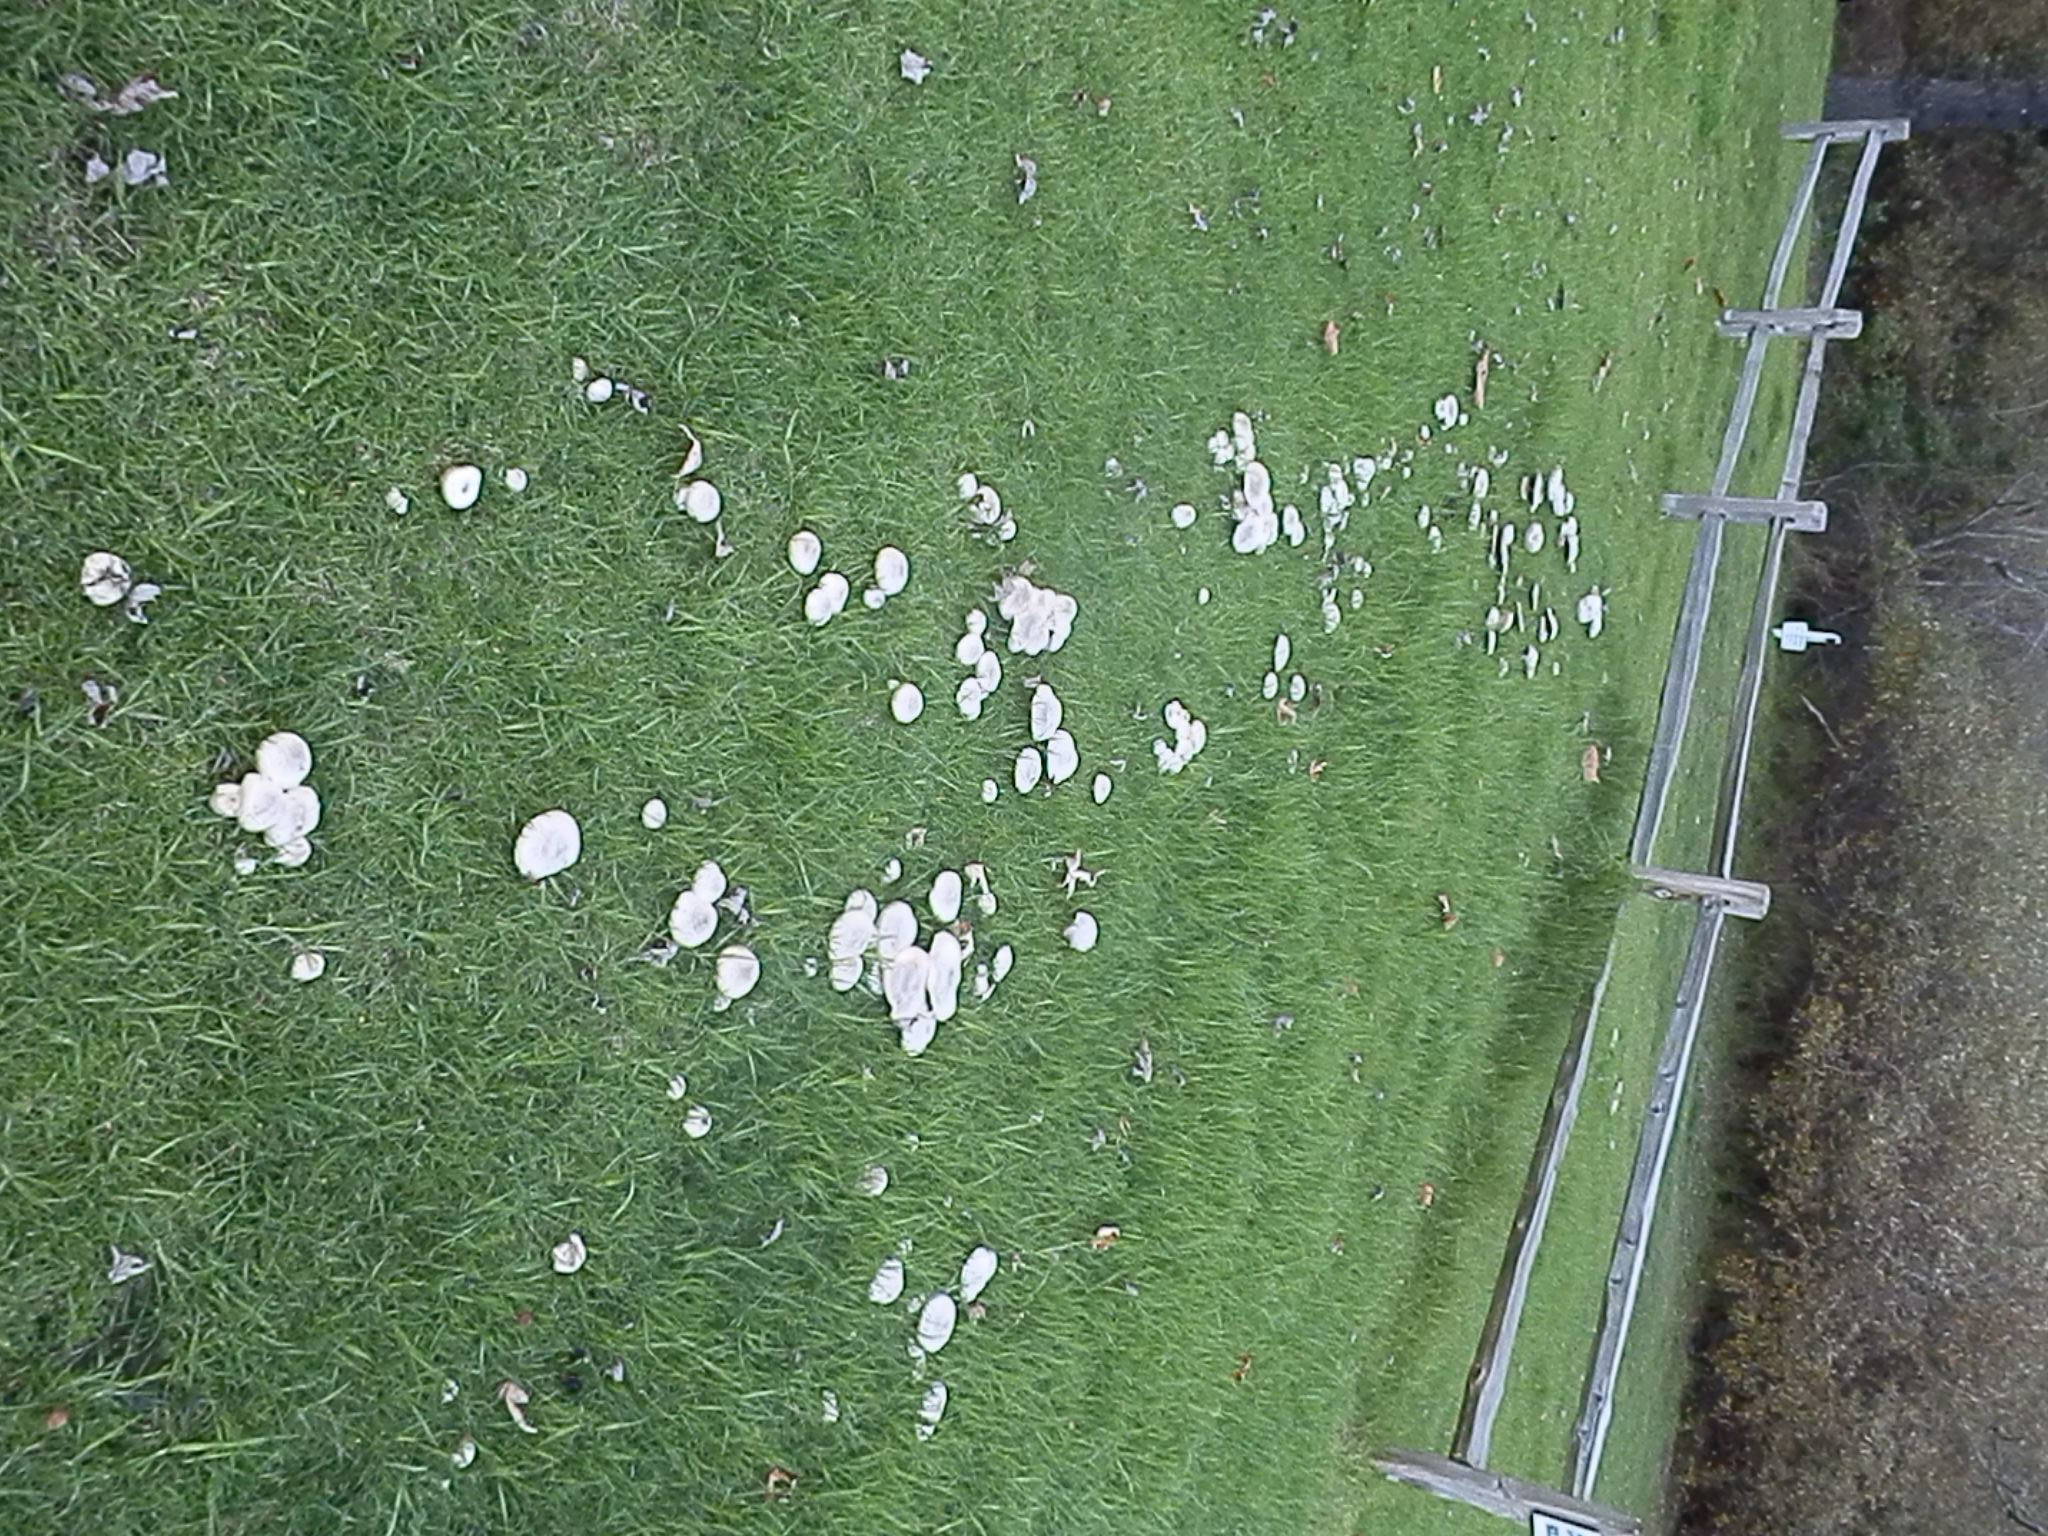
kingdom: Fungi
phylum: Basidiomycota
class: Agaricomycetes
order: Agaricales
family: Agaricaceae
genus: Agaricus
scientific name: Agaricus xanthodermus
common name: Yellow stainer
